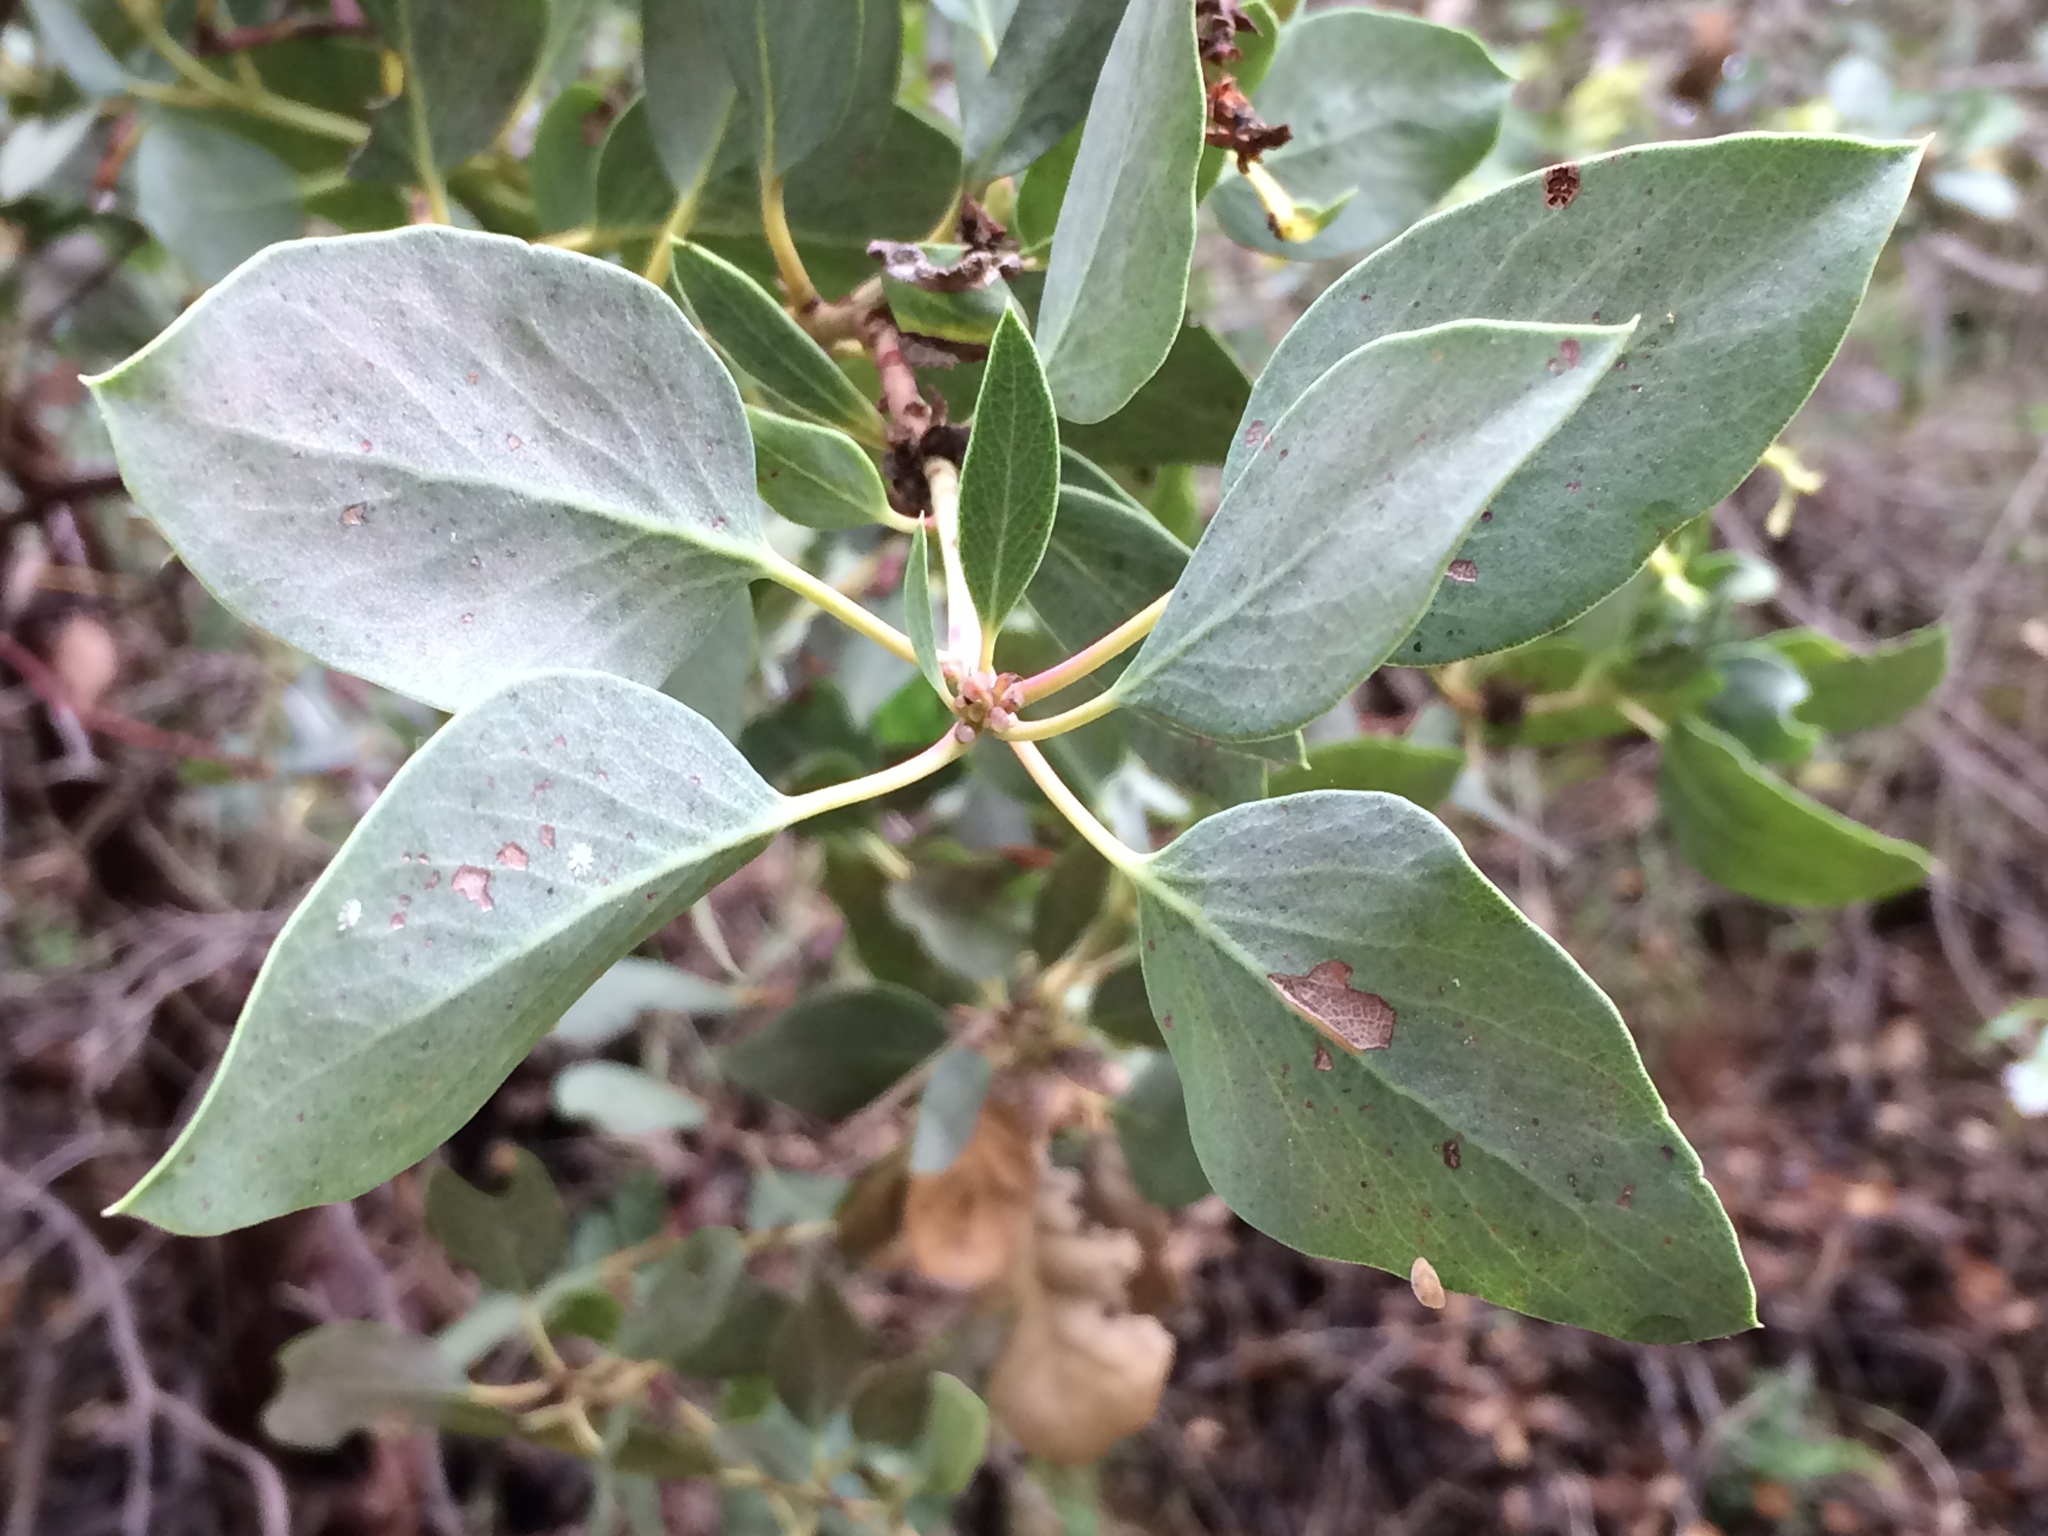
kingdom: Plantae
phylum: Tracheophyta
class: Magnoliopsida
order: Ericales
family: Ericaceae
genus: Arctostaphylos
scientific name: Arctostaphylos glauca
